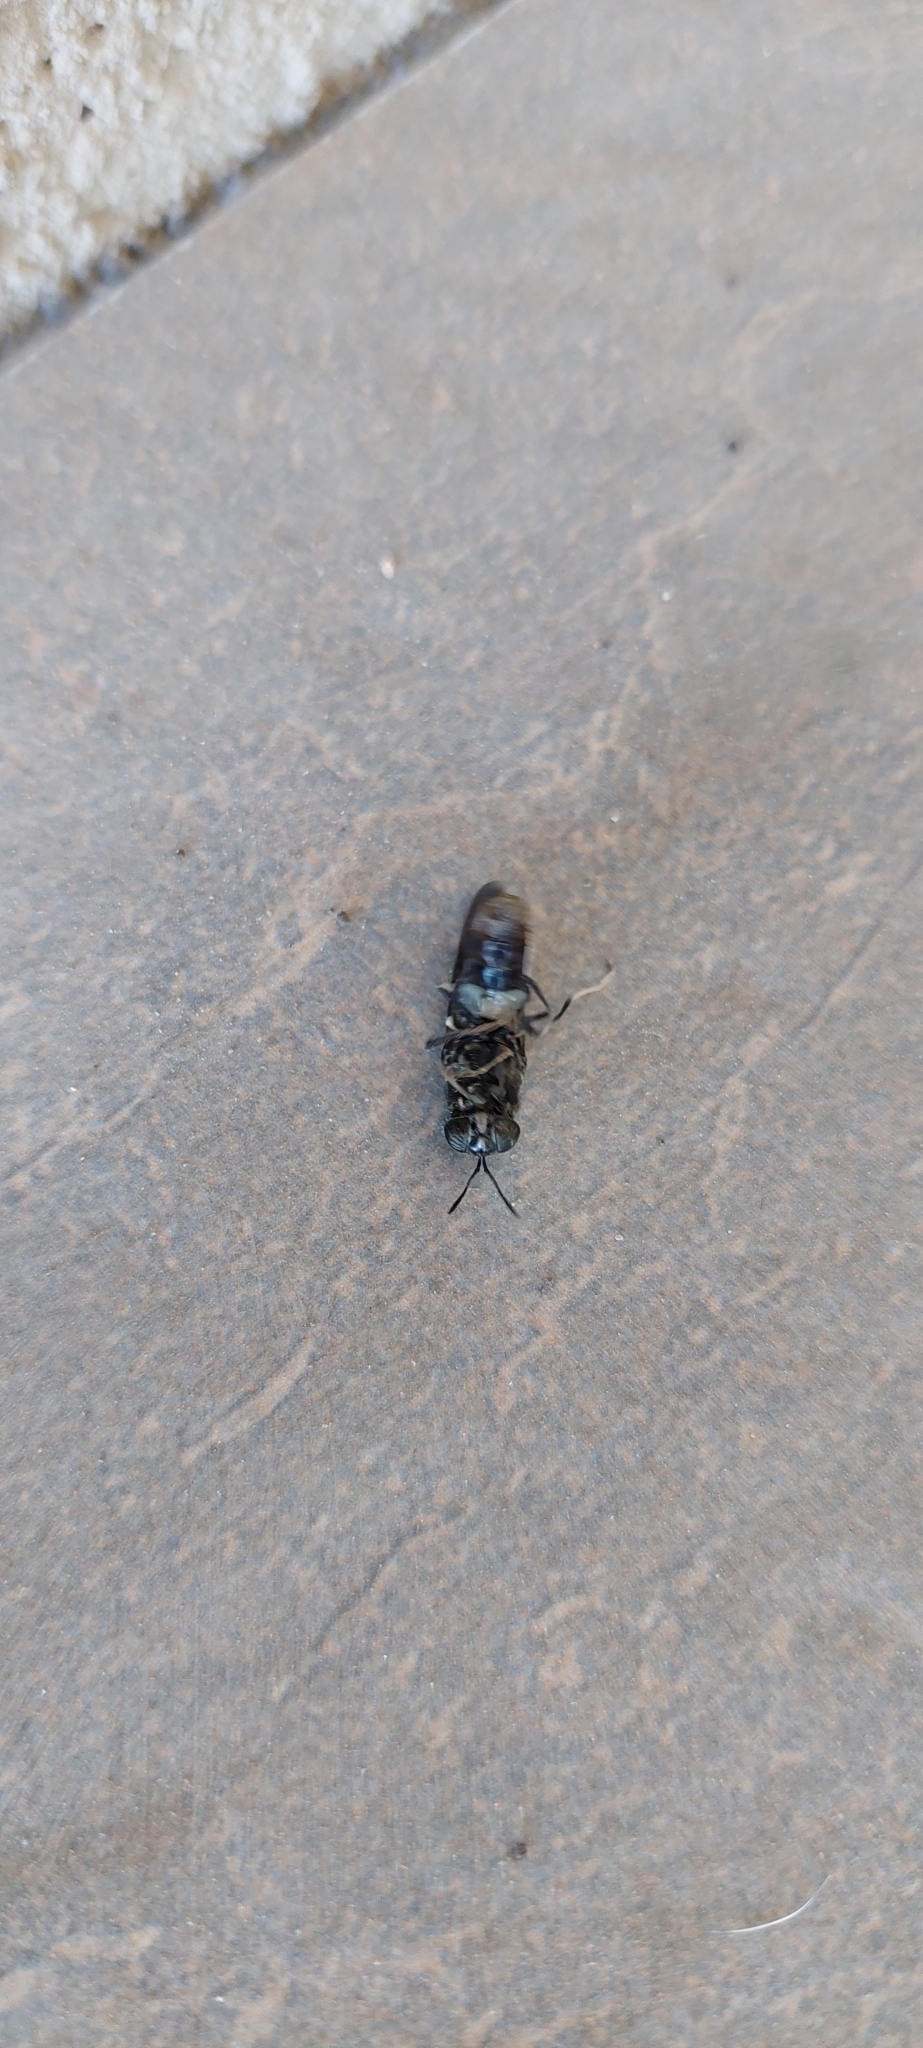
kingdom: Animalia
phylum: Arthropoda
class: Insecta
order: Diptera
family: Stratiomyidae
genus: Hermetia
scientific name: Hermetia illucens
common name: Black soldier fly
